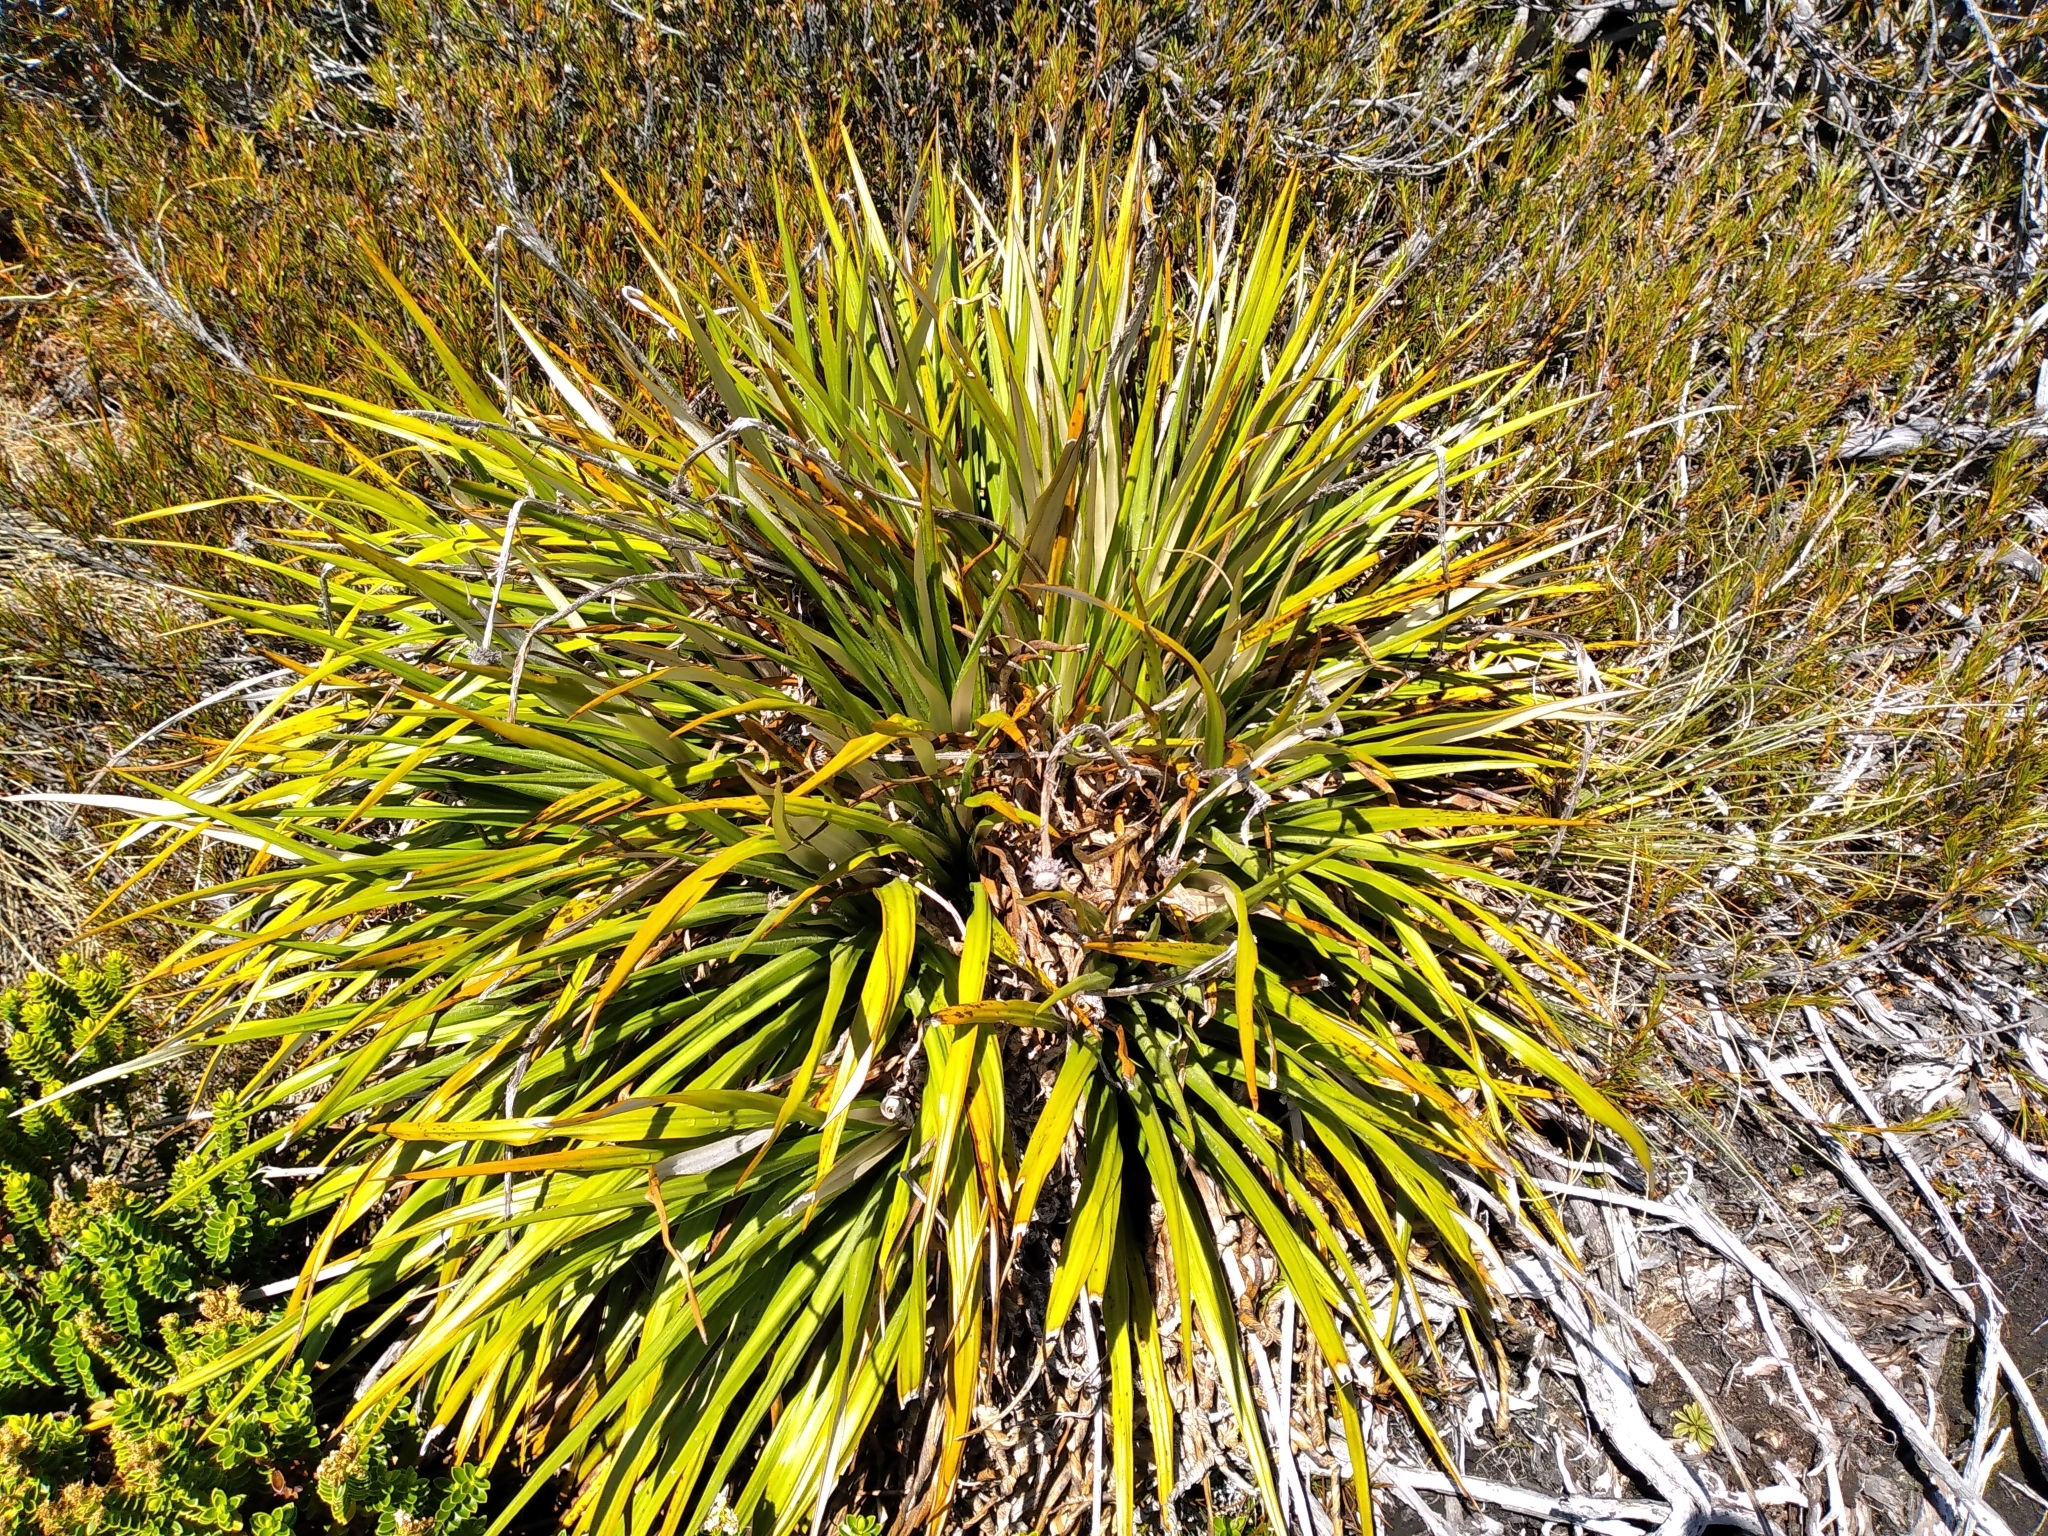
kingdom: Plantae
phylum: Tracheophyta
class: Magnoliopsida
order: Asterales
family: Asteraceae
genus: Celmisia
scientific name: Celmisia petriei
